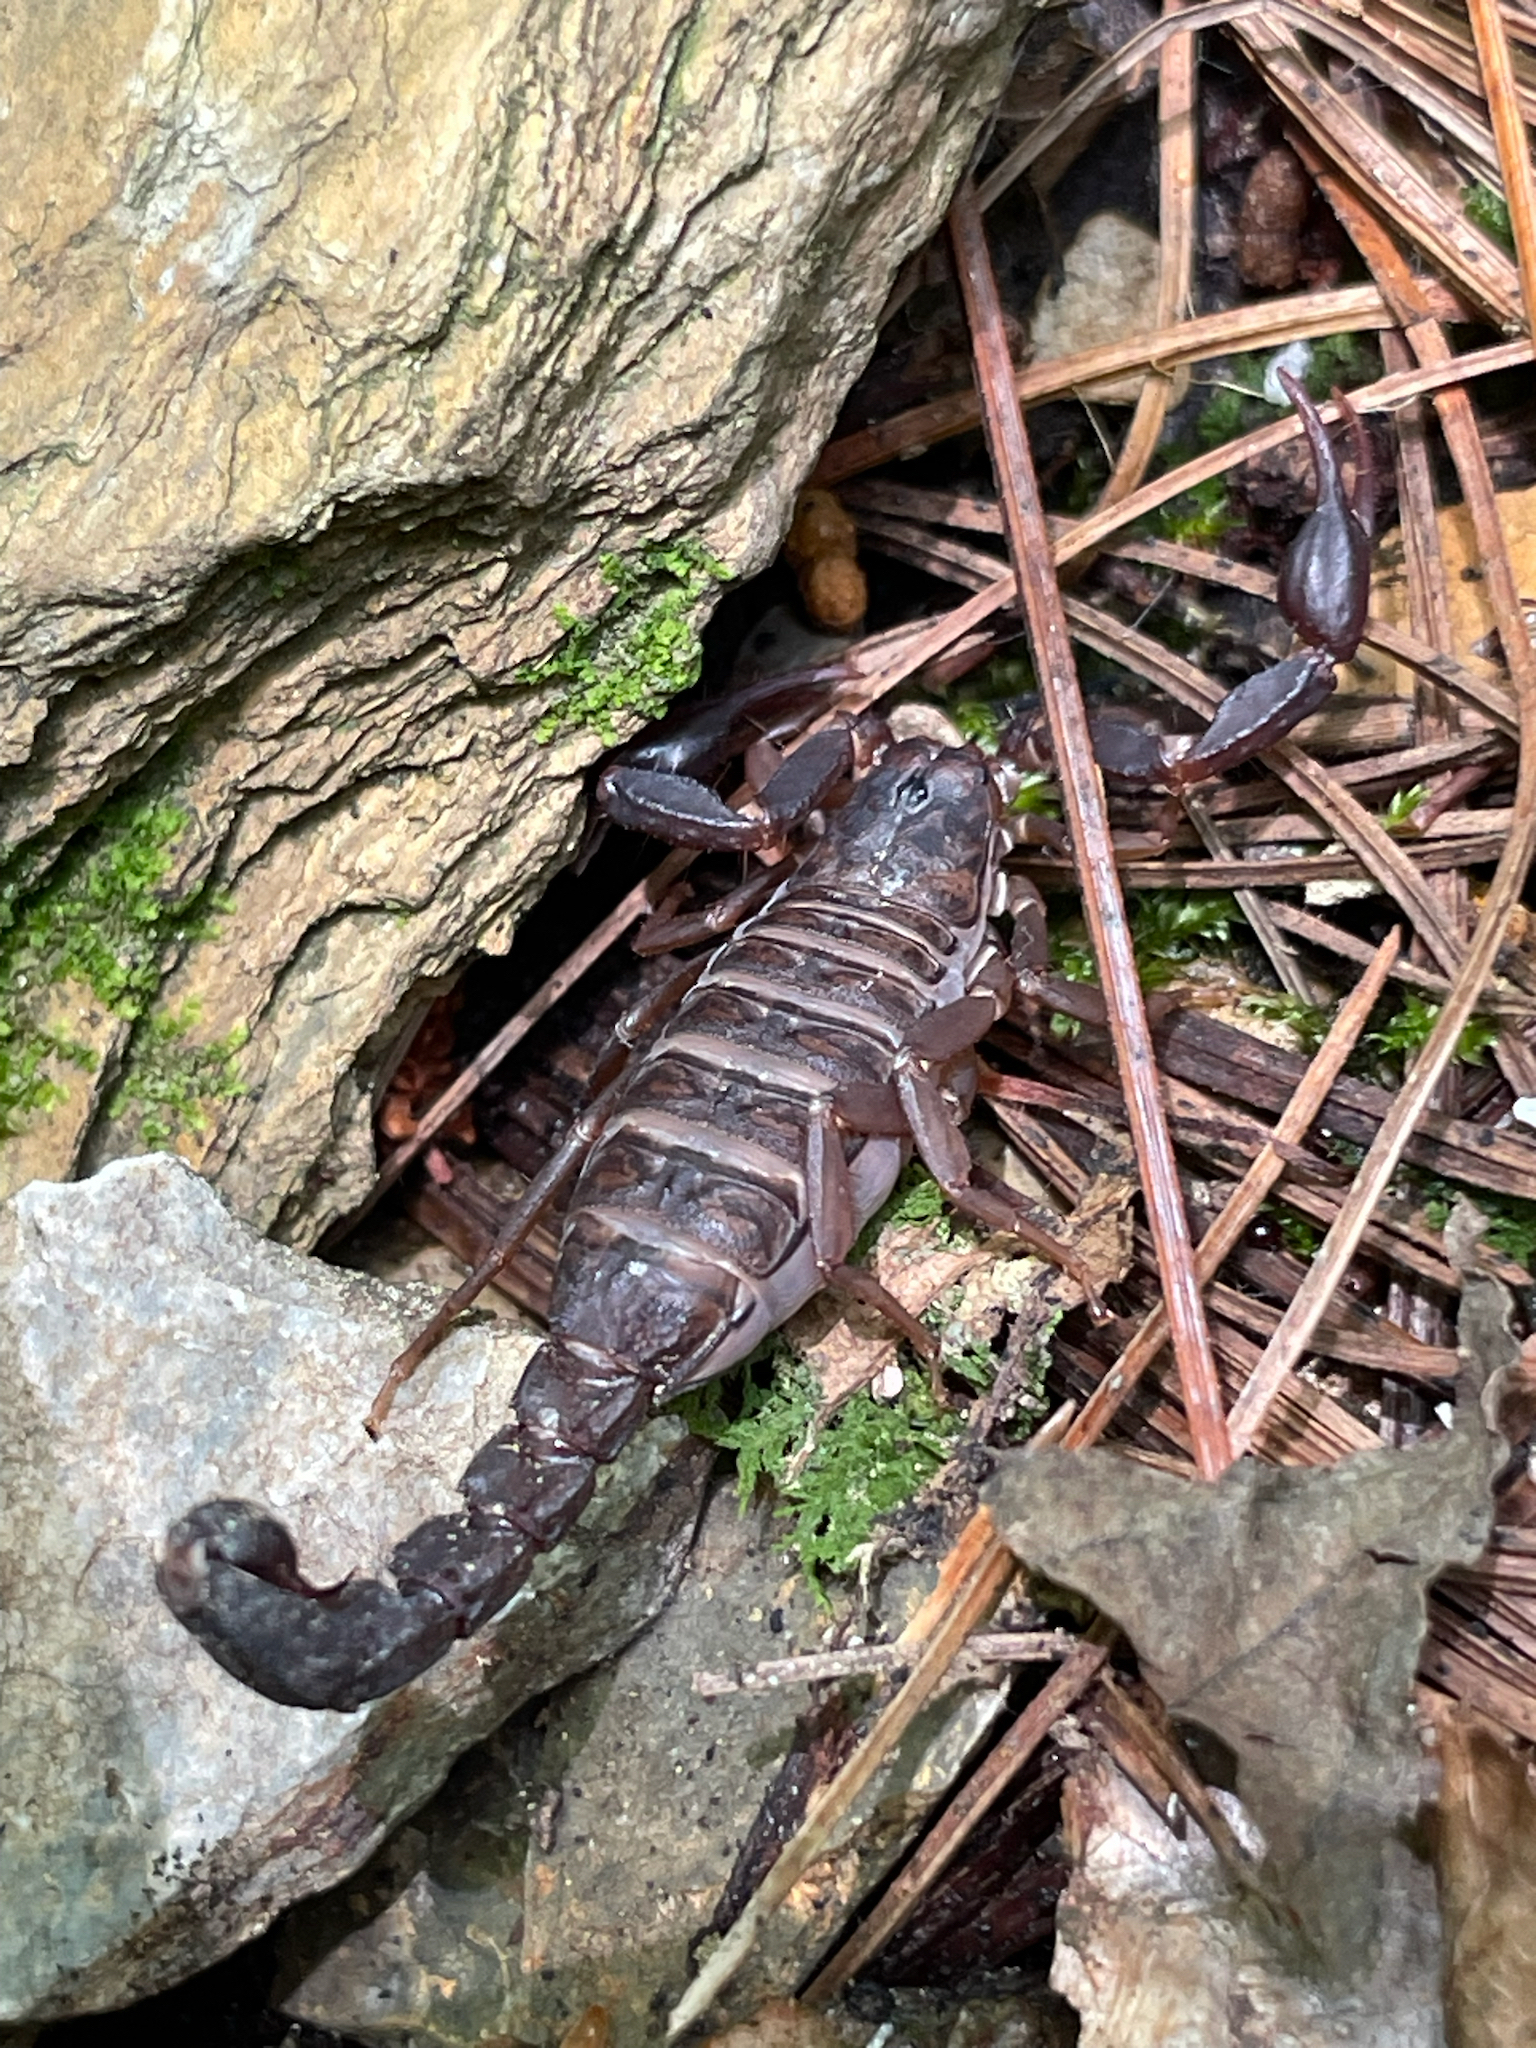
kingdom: Animalia
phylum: Arthropoda
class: Arachnida
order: Scorpiones
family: Vaejovidae
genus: Vaejovis
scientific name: Vaejovis carolinianus
